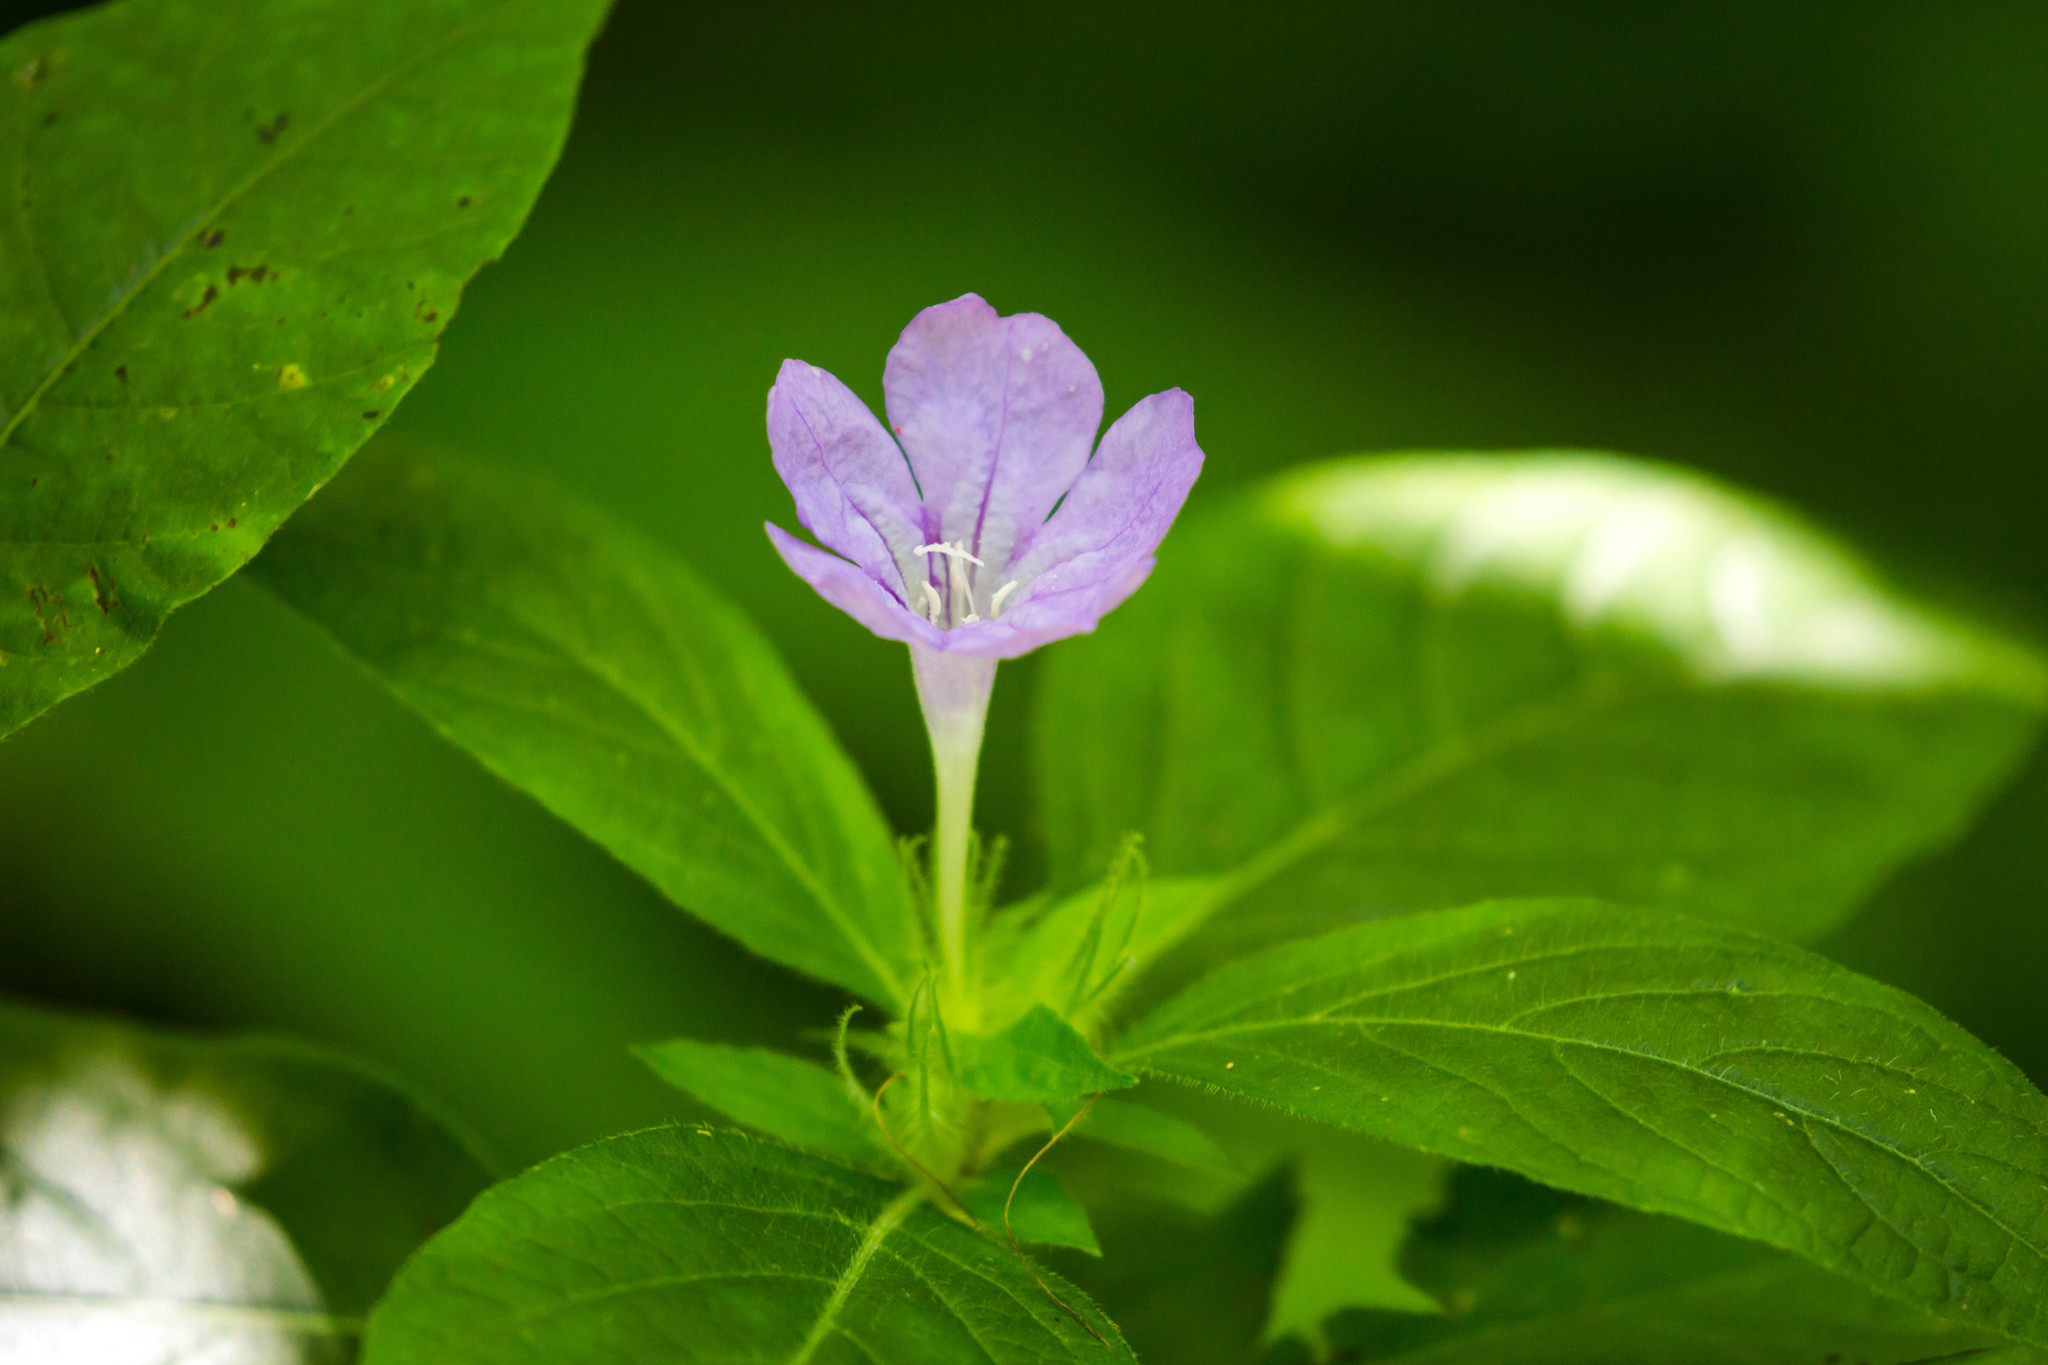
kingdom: Plantae
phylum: Tracheophyta
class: Magnoliopsida
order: Lamiales
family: Acanthaceae
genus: Ruellia
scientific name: Ruellia caroliniensis
